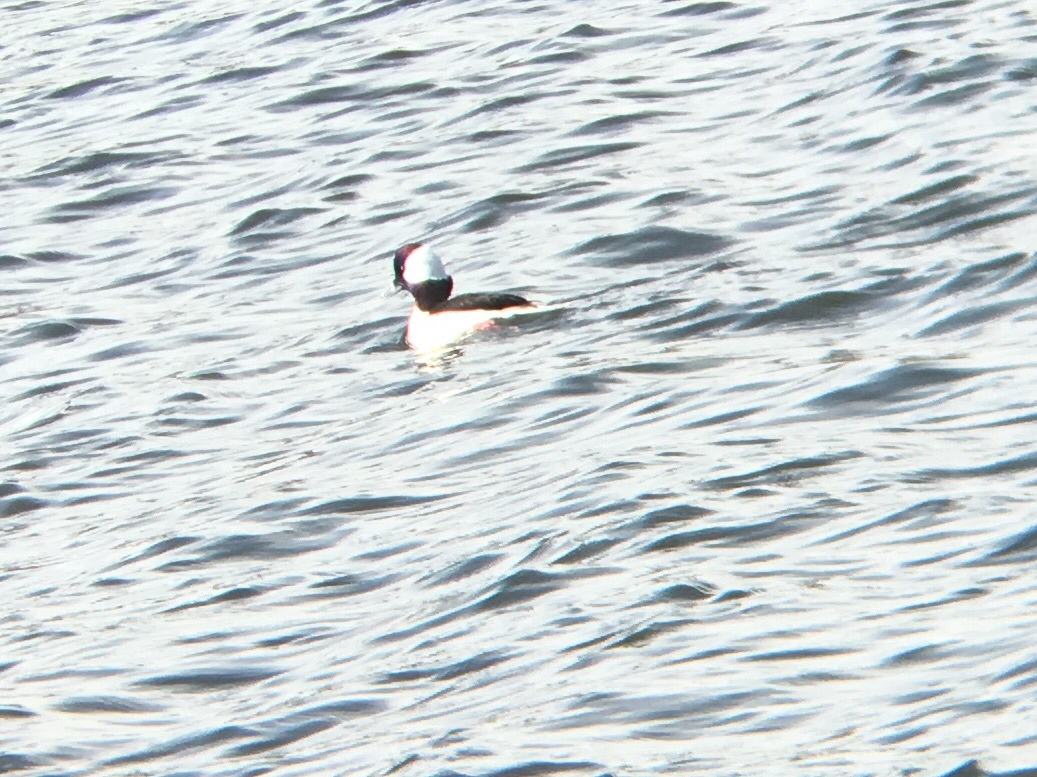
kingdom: Animalia
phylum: Chordata
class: Aves
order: Anseriformes
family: Anatidae
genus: Bucephala
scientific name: Bucephala albeola
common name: Bufflehead
